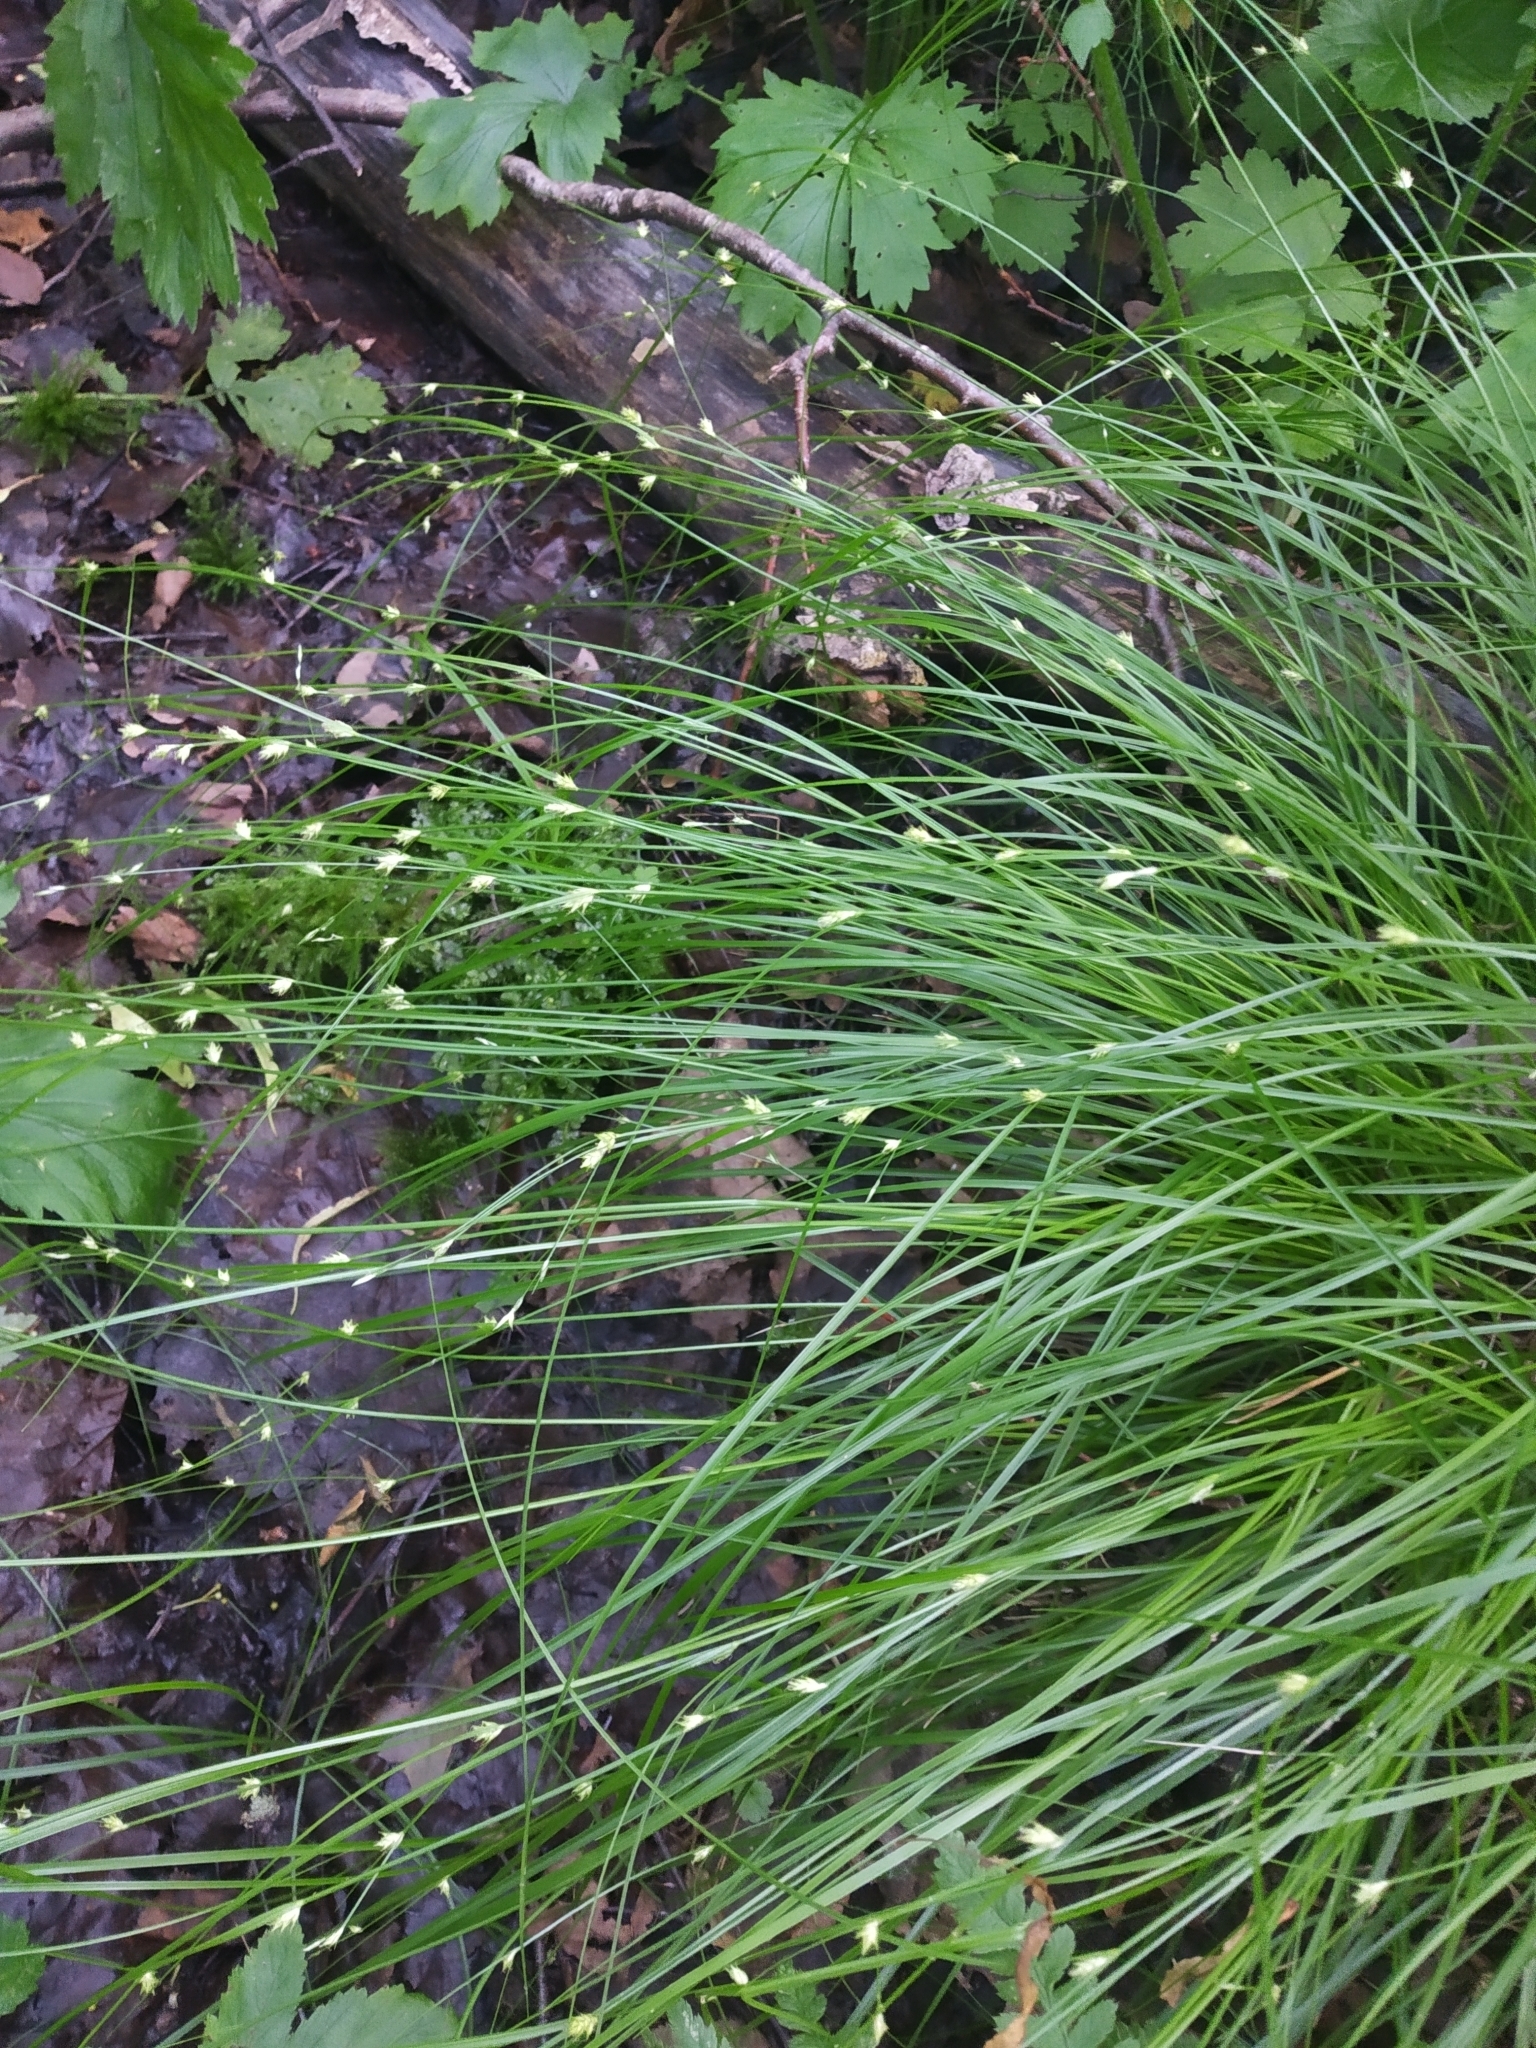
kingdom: Plantae
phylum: Tracheophyta
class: Liliopsida
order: Poales
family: Cyperaceae
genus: Carex
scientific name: Carex remota
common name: Remote sedge
